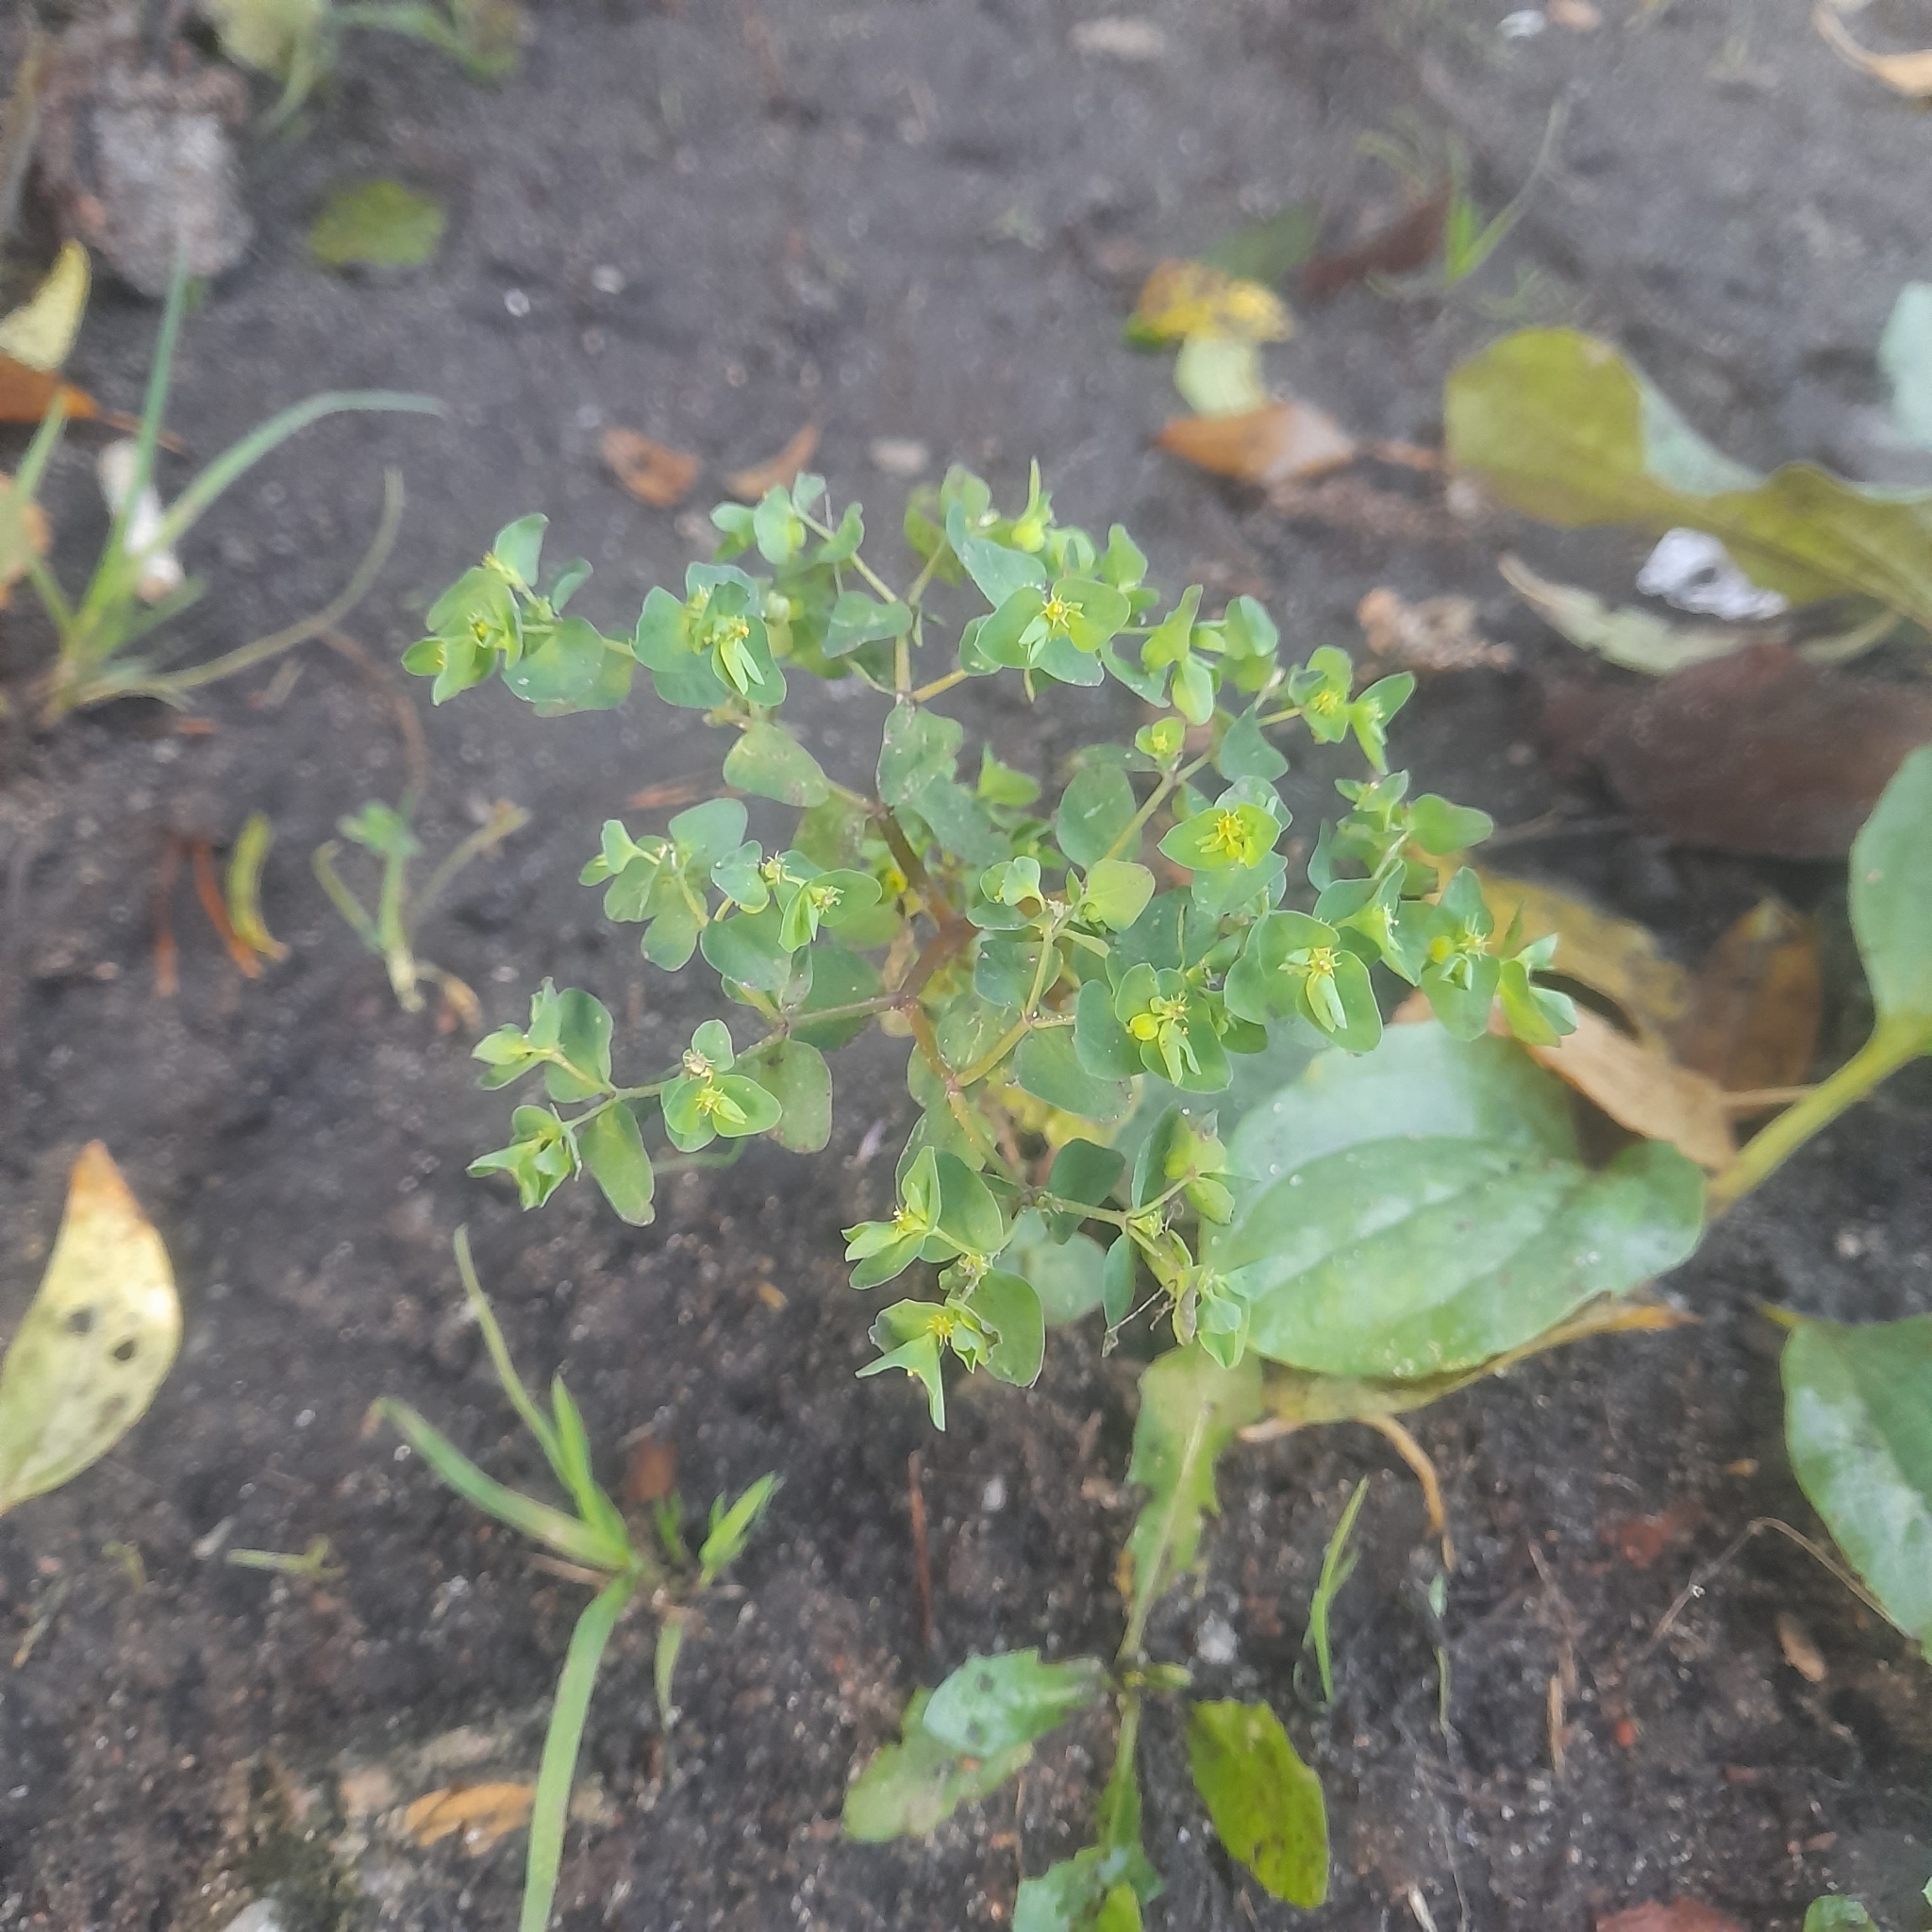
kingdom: Plantae
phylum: Tracheophyta
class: Magnoliopsida
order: Malpighiales
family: Euphorbiaceae
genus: Euphorbia
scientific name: Euphorbia peplus
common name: Petty spurge
